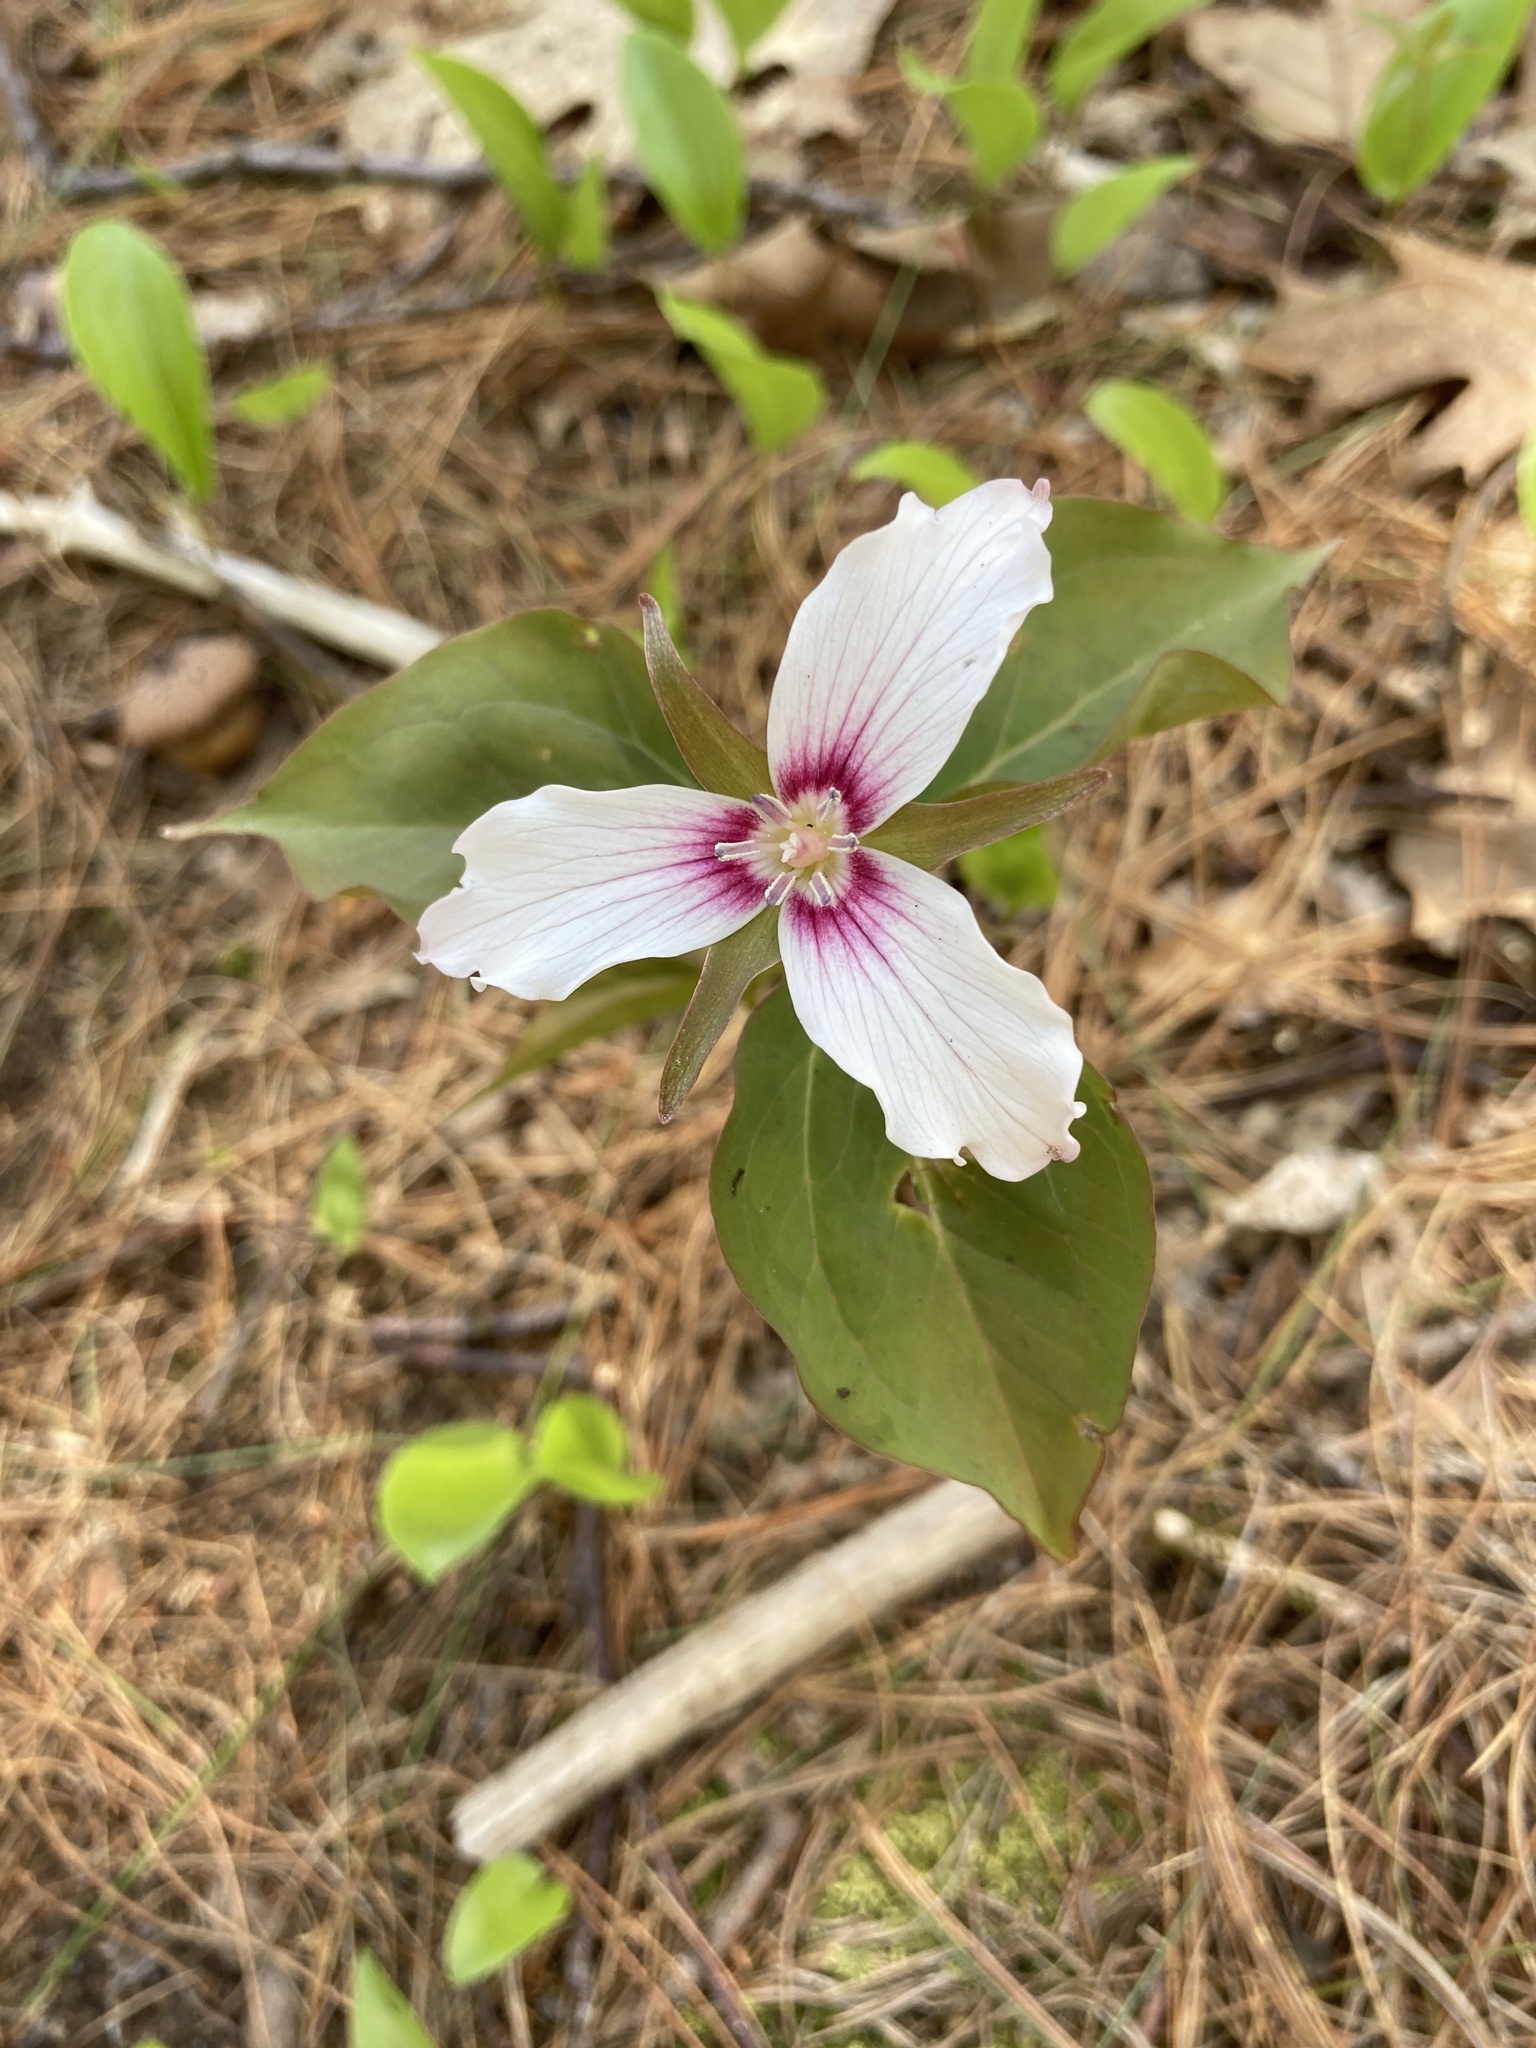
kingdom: Plantae
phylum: Tracheophyta
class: Liliopsida
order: Liliales
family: Melanthiaceae
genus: Trillium
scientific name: Trillium undulatum
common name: Paint trillium
